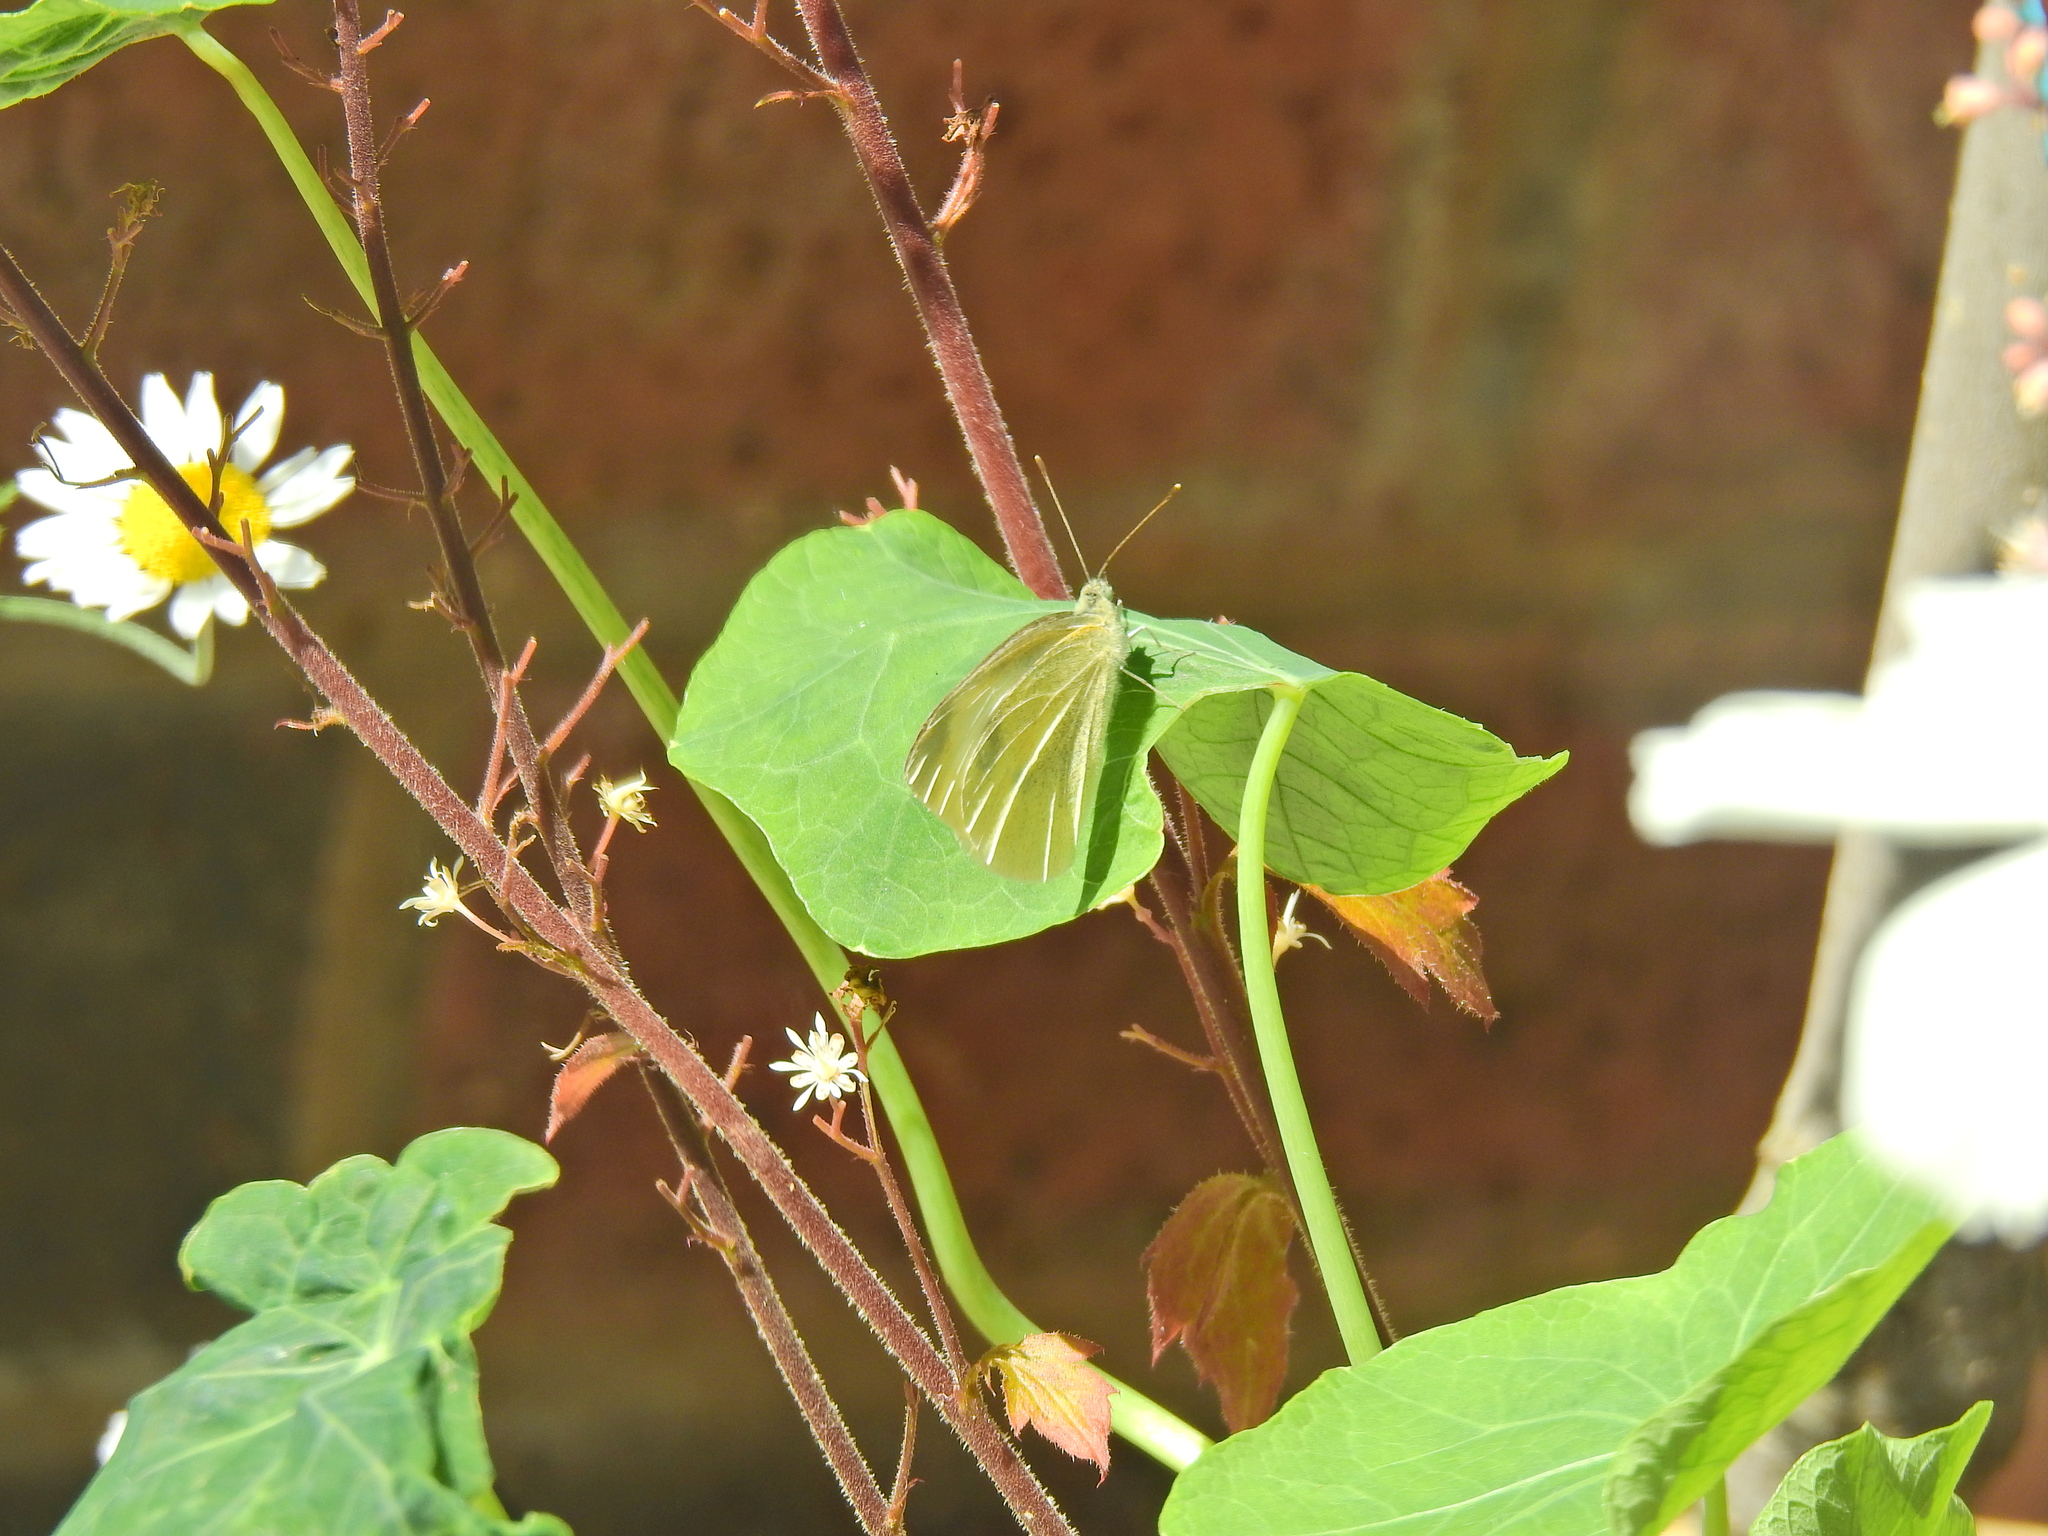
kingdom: Animalia
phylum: Arthropoda
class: Insecta
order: Lepidoptera
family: Pieridae
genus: Pieris
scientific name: Pieris rapae
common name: Small white
